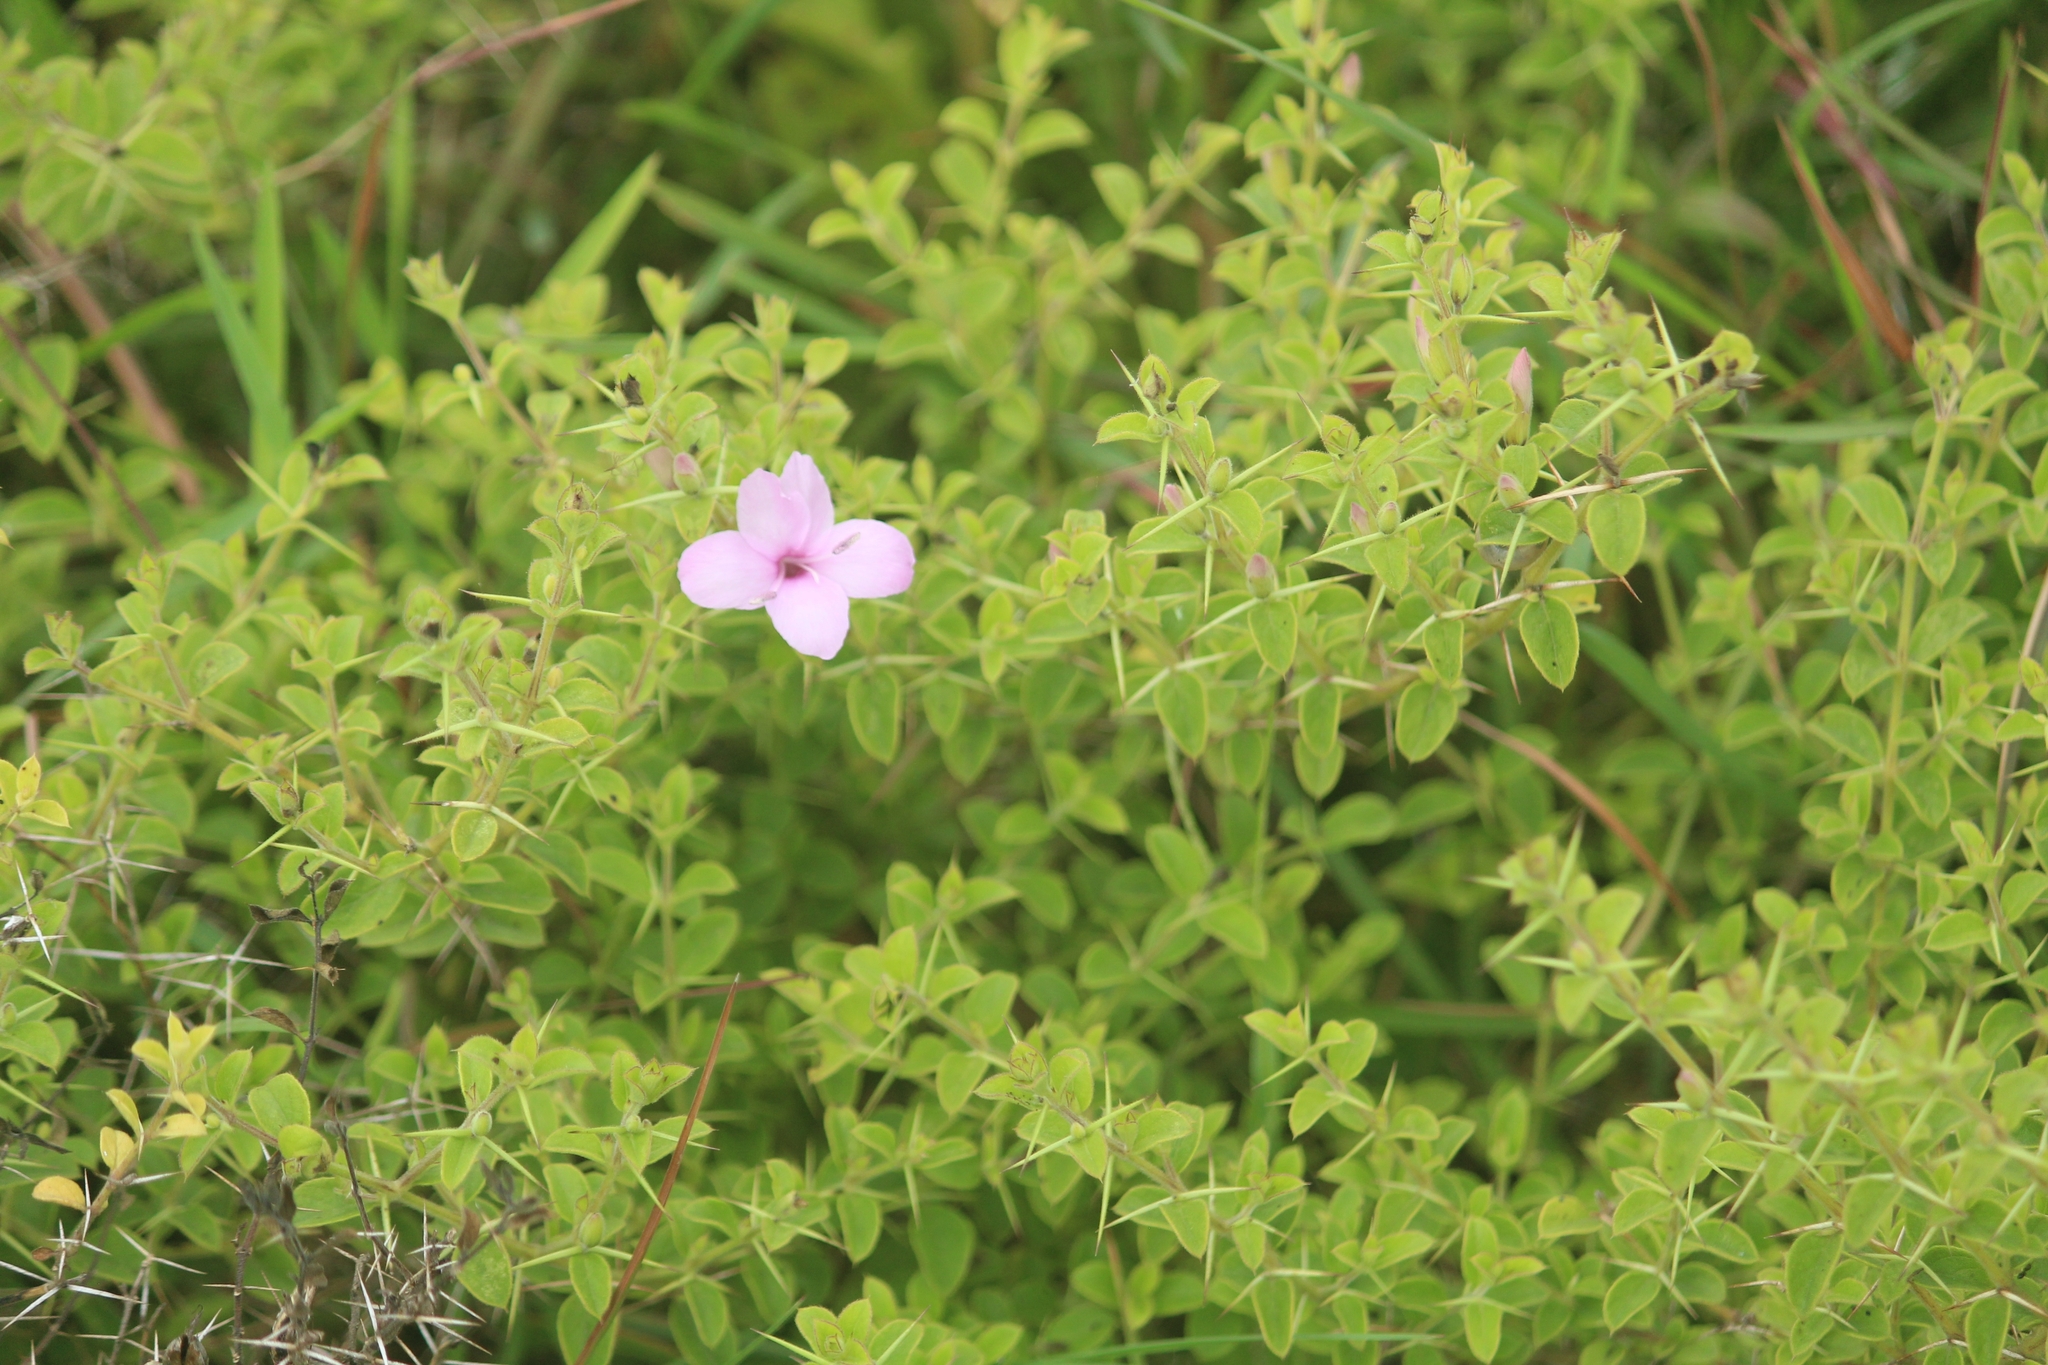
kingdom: Plantae
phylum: Tracheophyta
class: Magnoliopsida
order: Lamiales
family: Acanthaceae
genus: Barleria
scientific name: Barleria mysorensis
